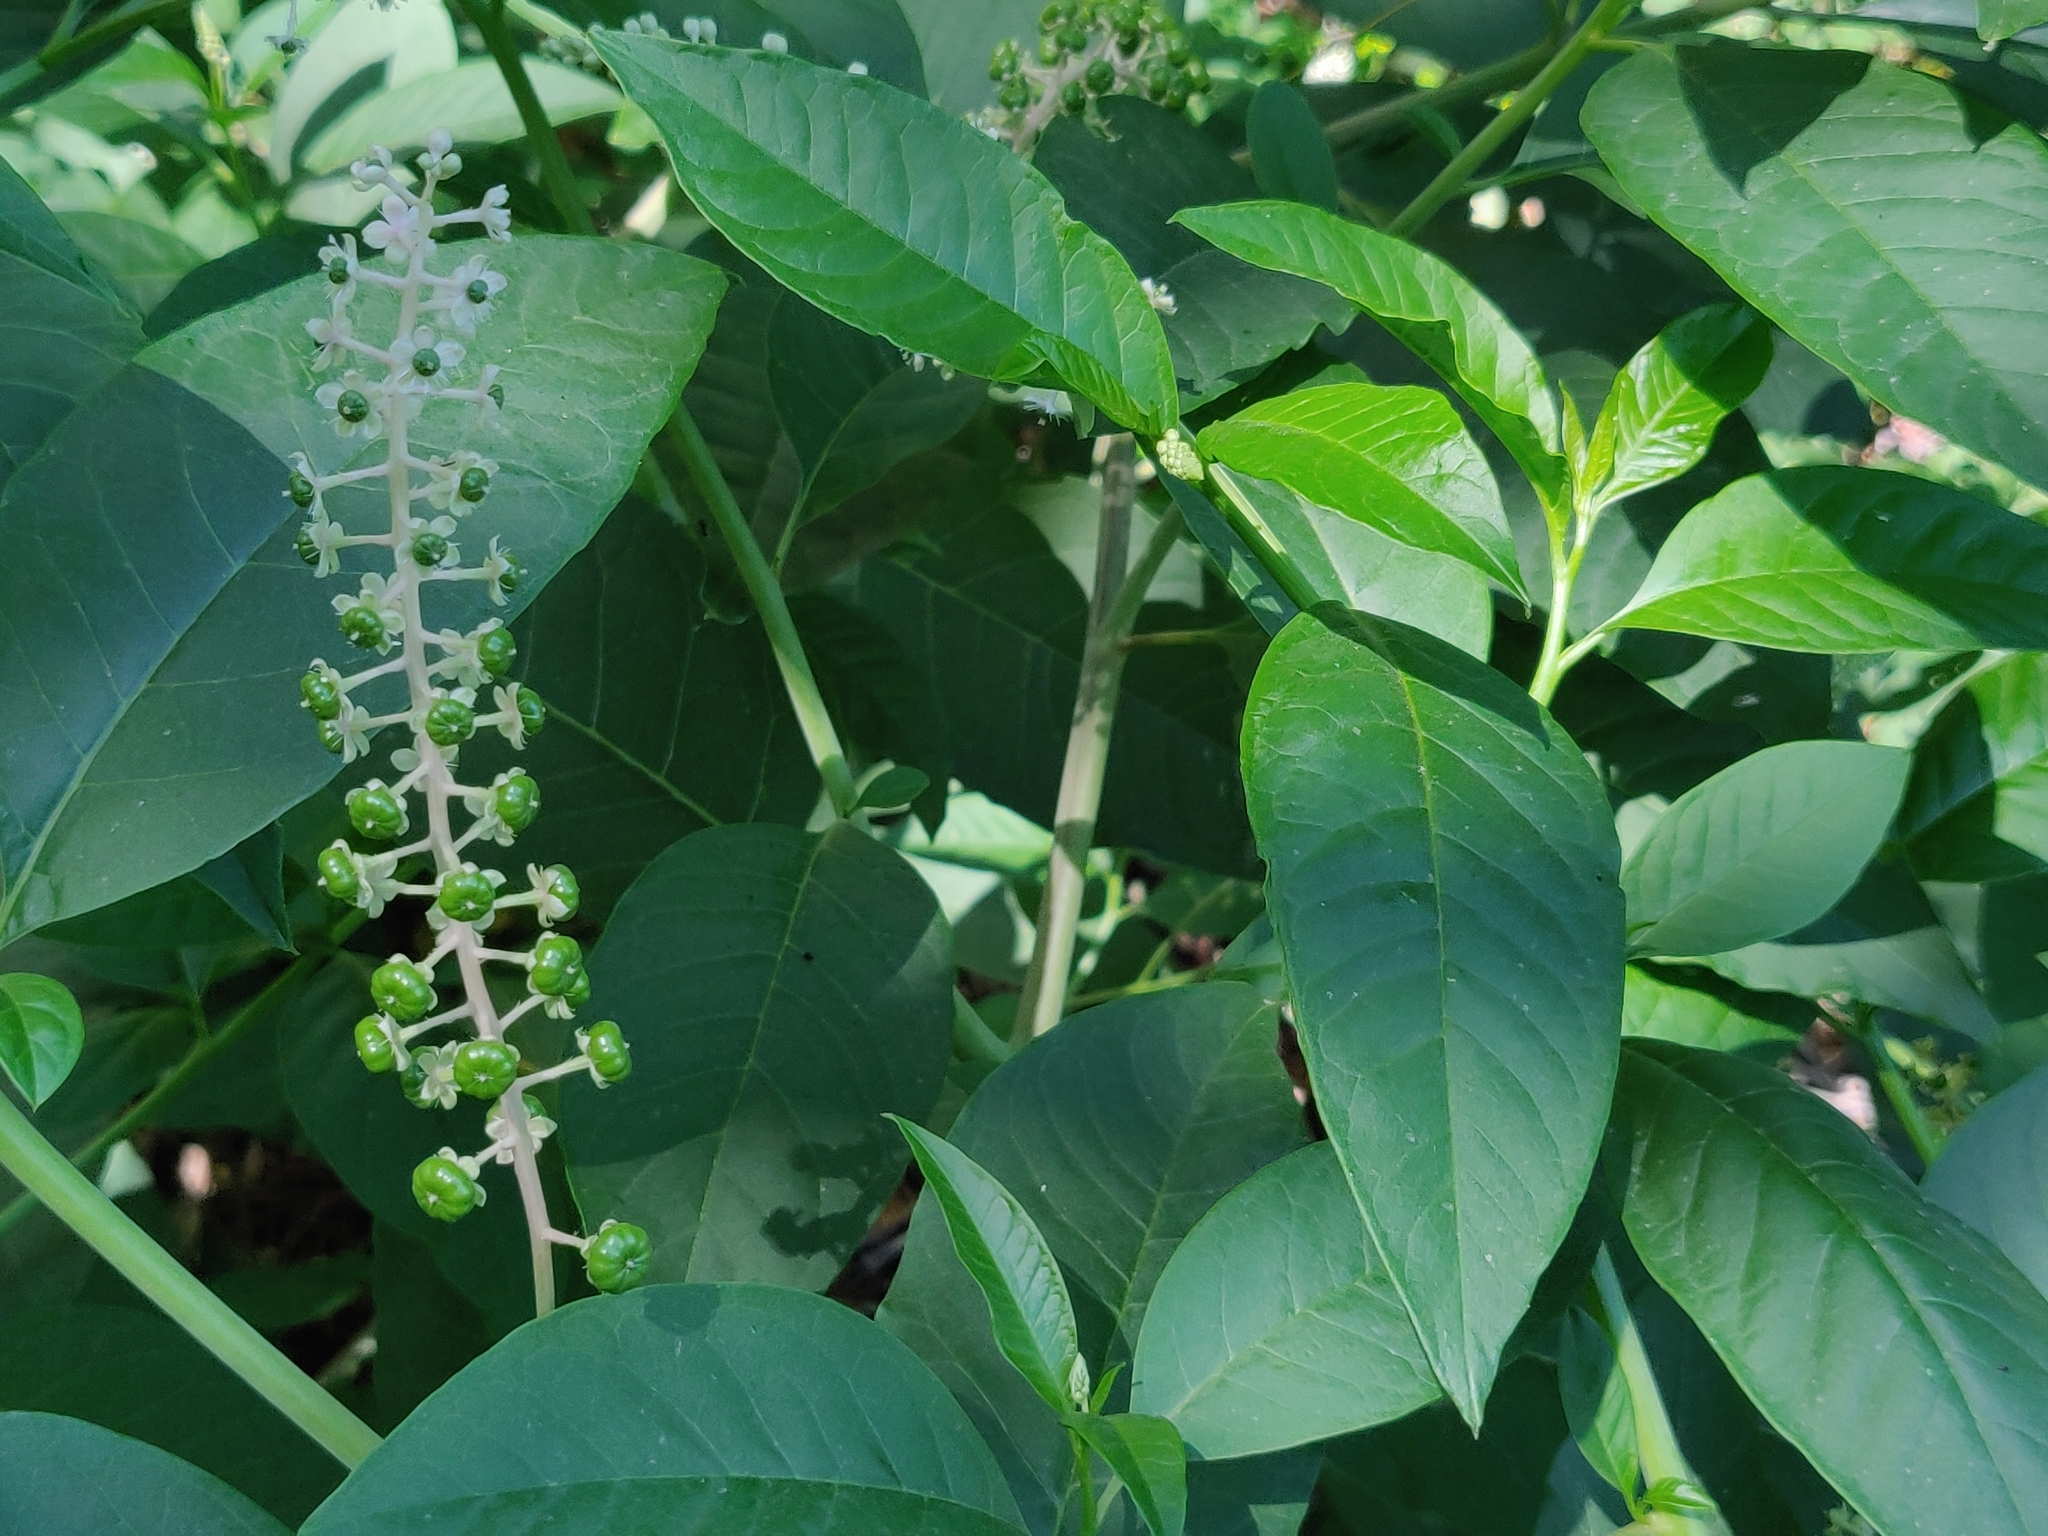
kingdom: Plantae
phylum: Tracheophyta
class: Magnoliopsida
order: Caryophyllales
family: Phytolaccaceae
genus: Phytolacca
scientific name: Phytolacca americana
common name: American pokeweed
